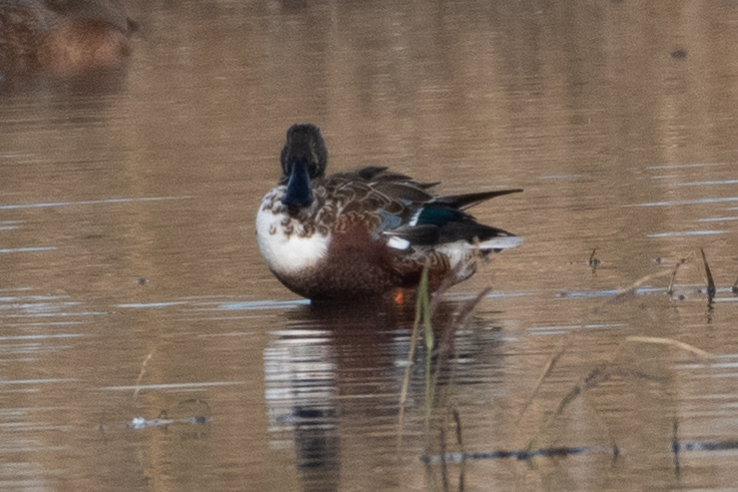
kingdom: Animalia
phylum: Chordata
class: Aves
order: Anseriformes
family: Anatidae
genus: Spatula
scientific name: Spatula clypeata
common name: Northern shoveler
